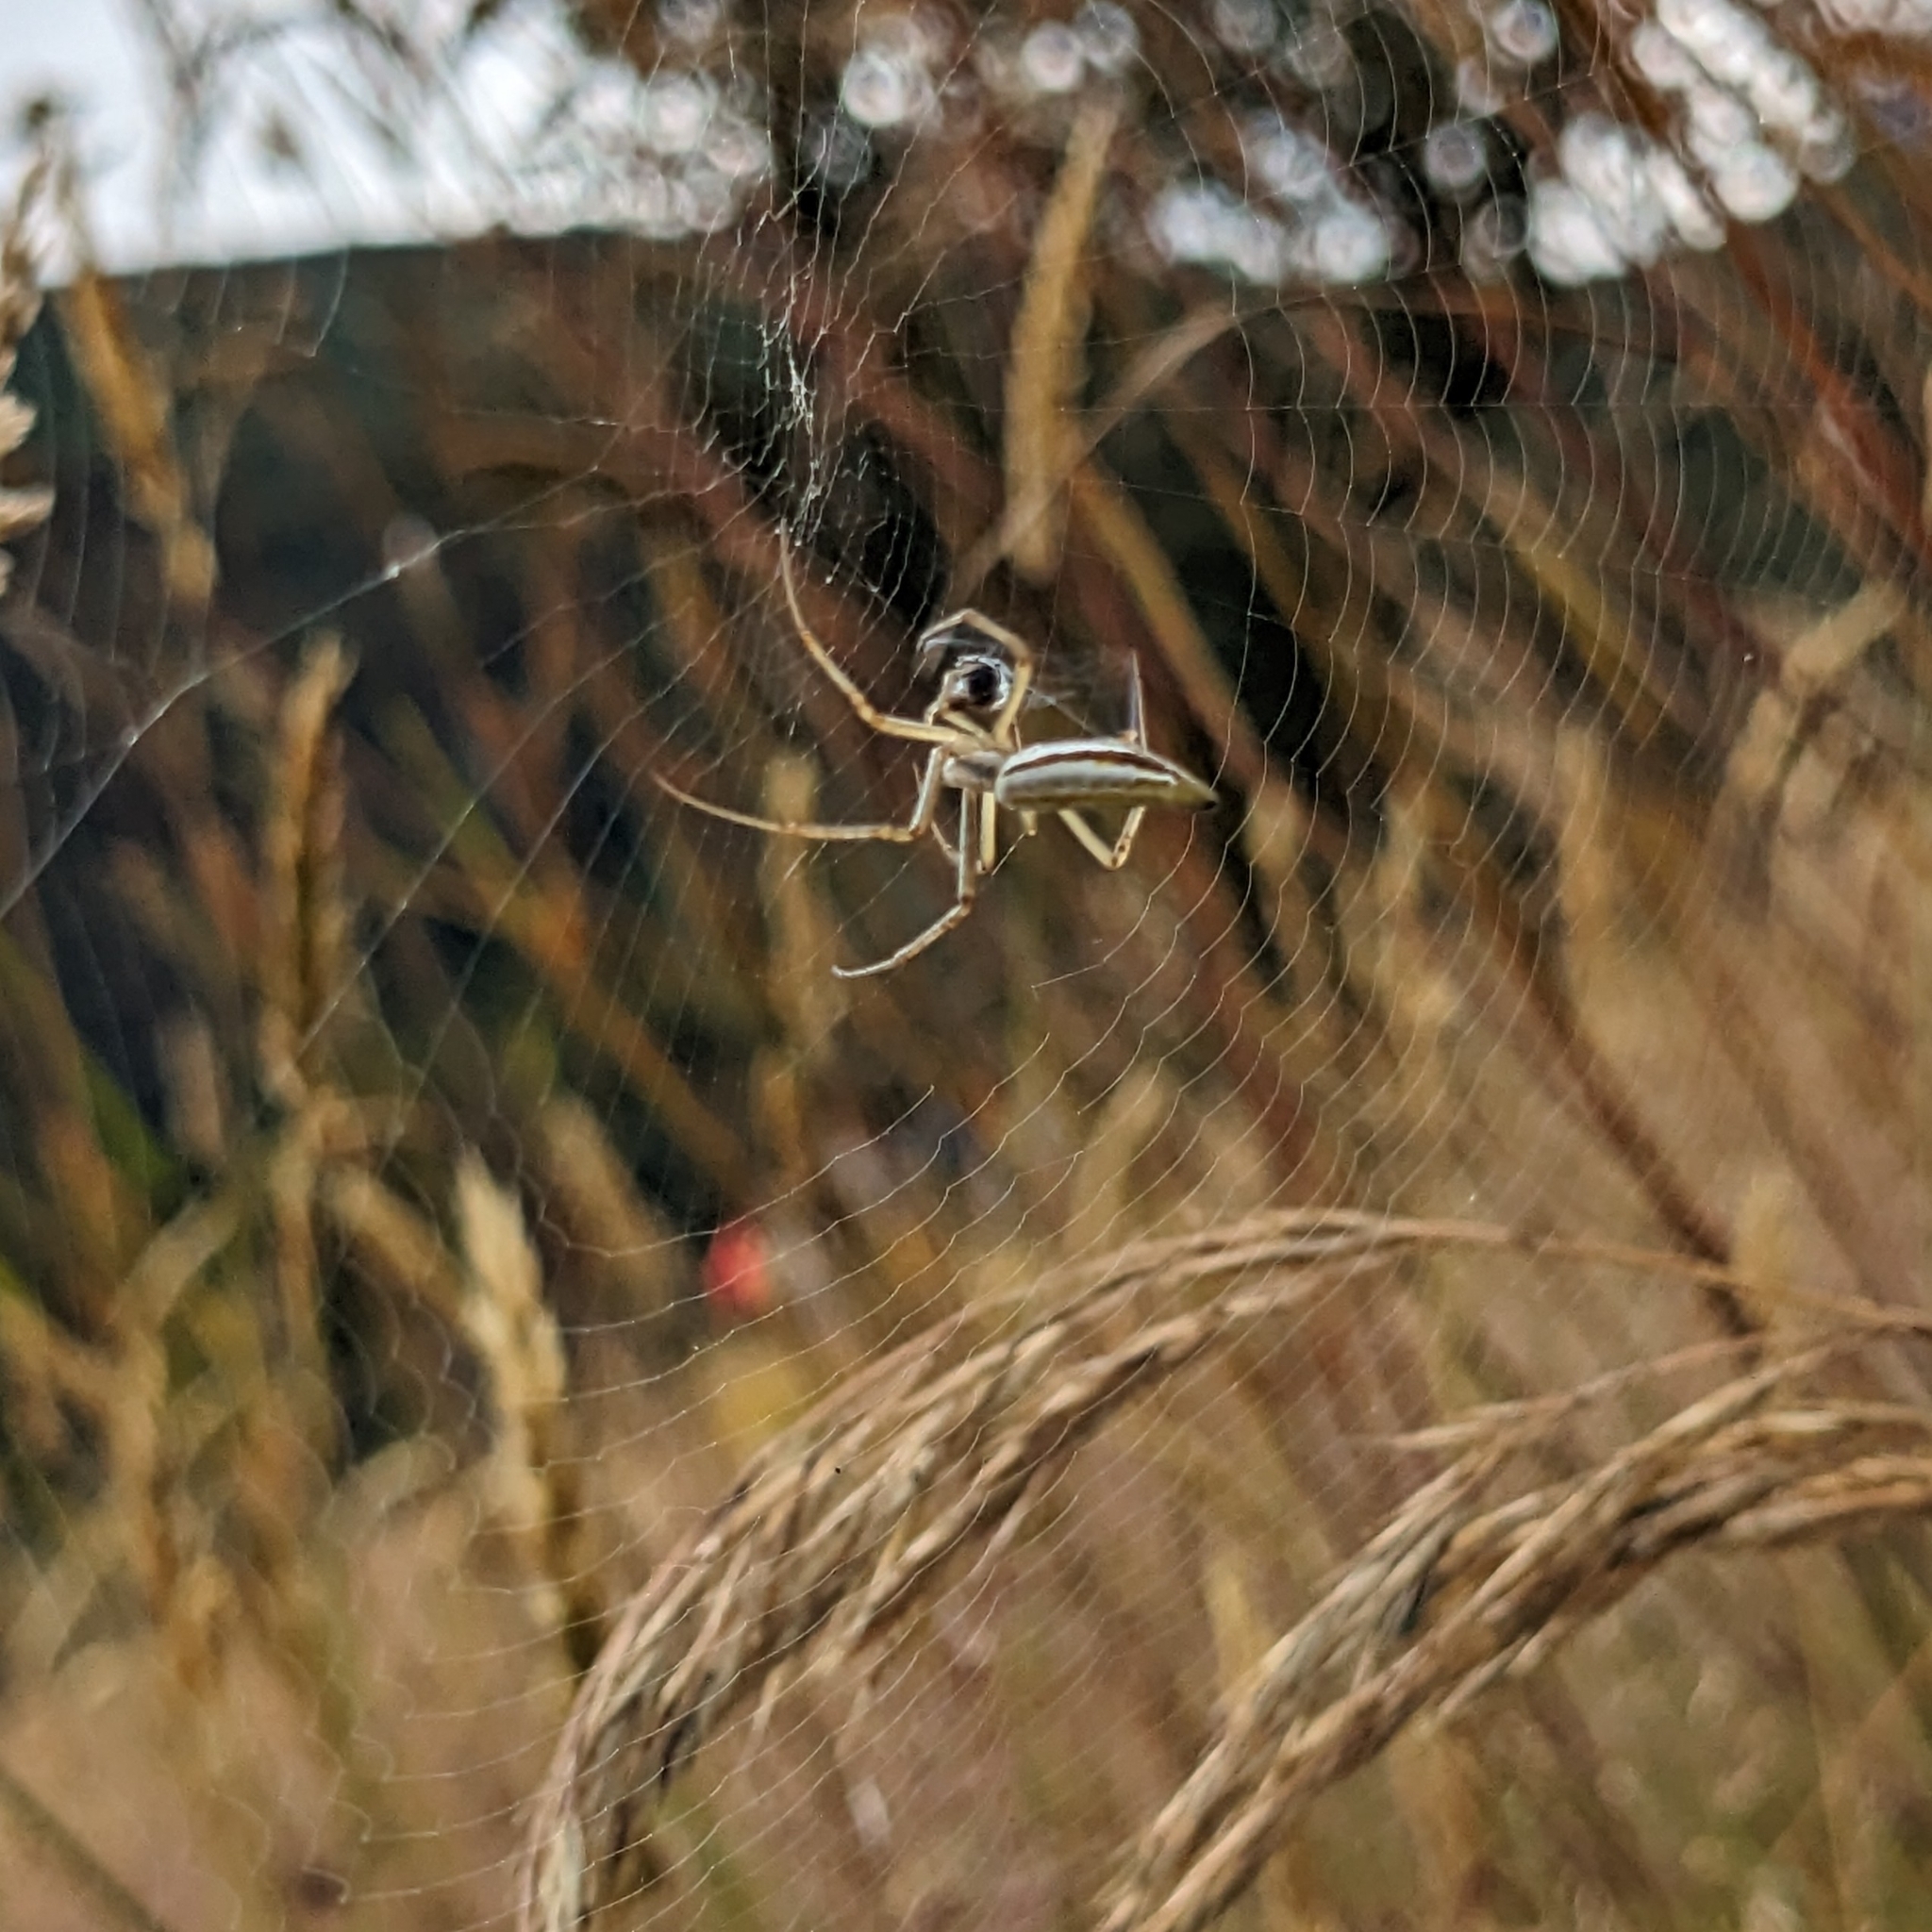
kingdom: Animalia
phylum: Arthropoda
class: Arachnida
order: Araneae
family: Araneidae
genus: Argiope
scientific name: Argiope protensa
